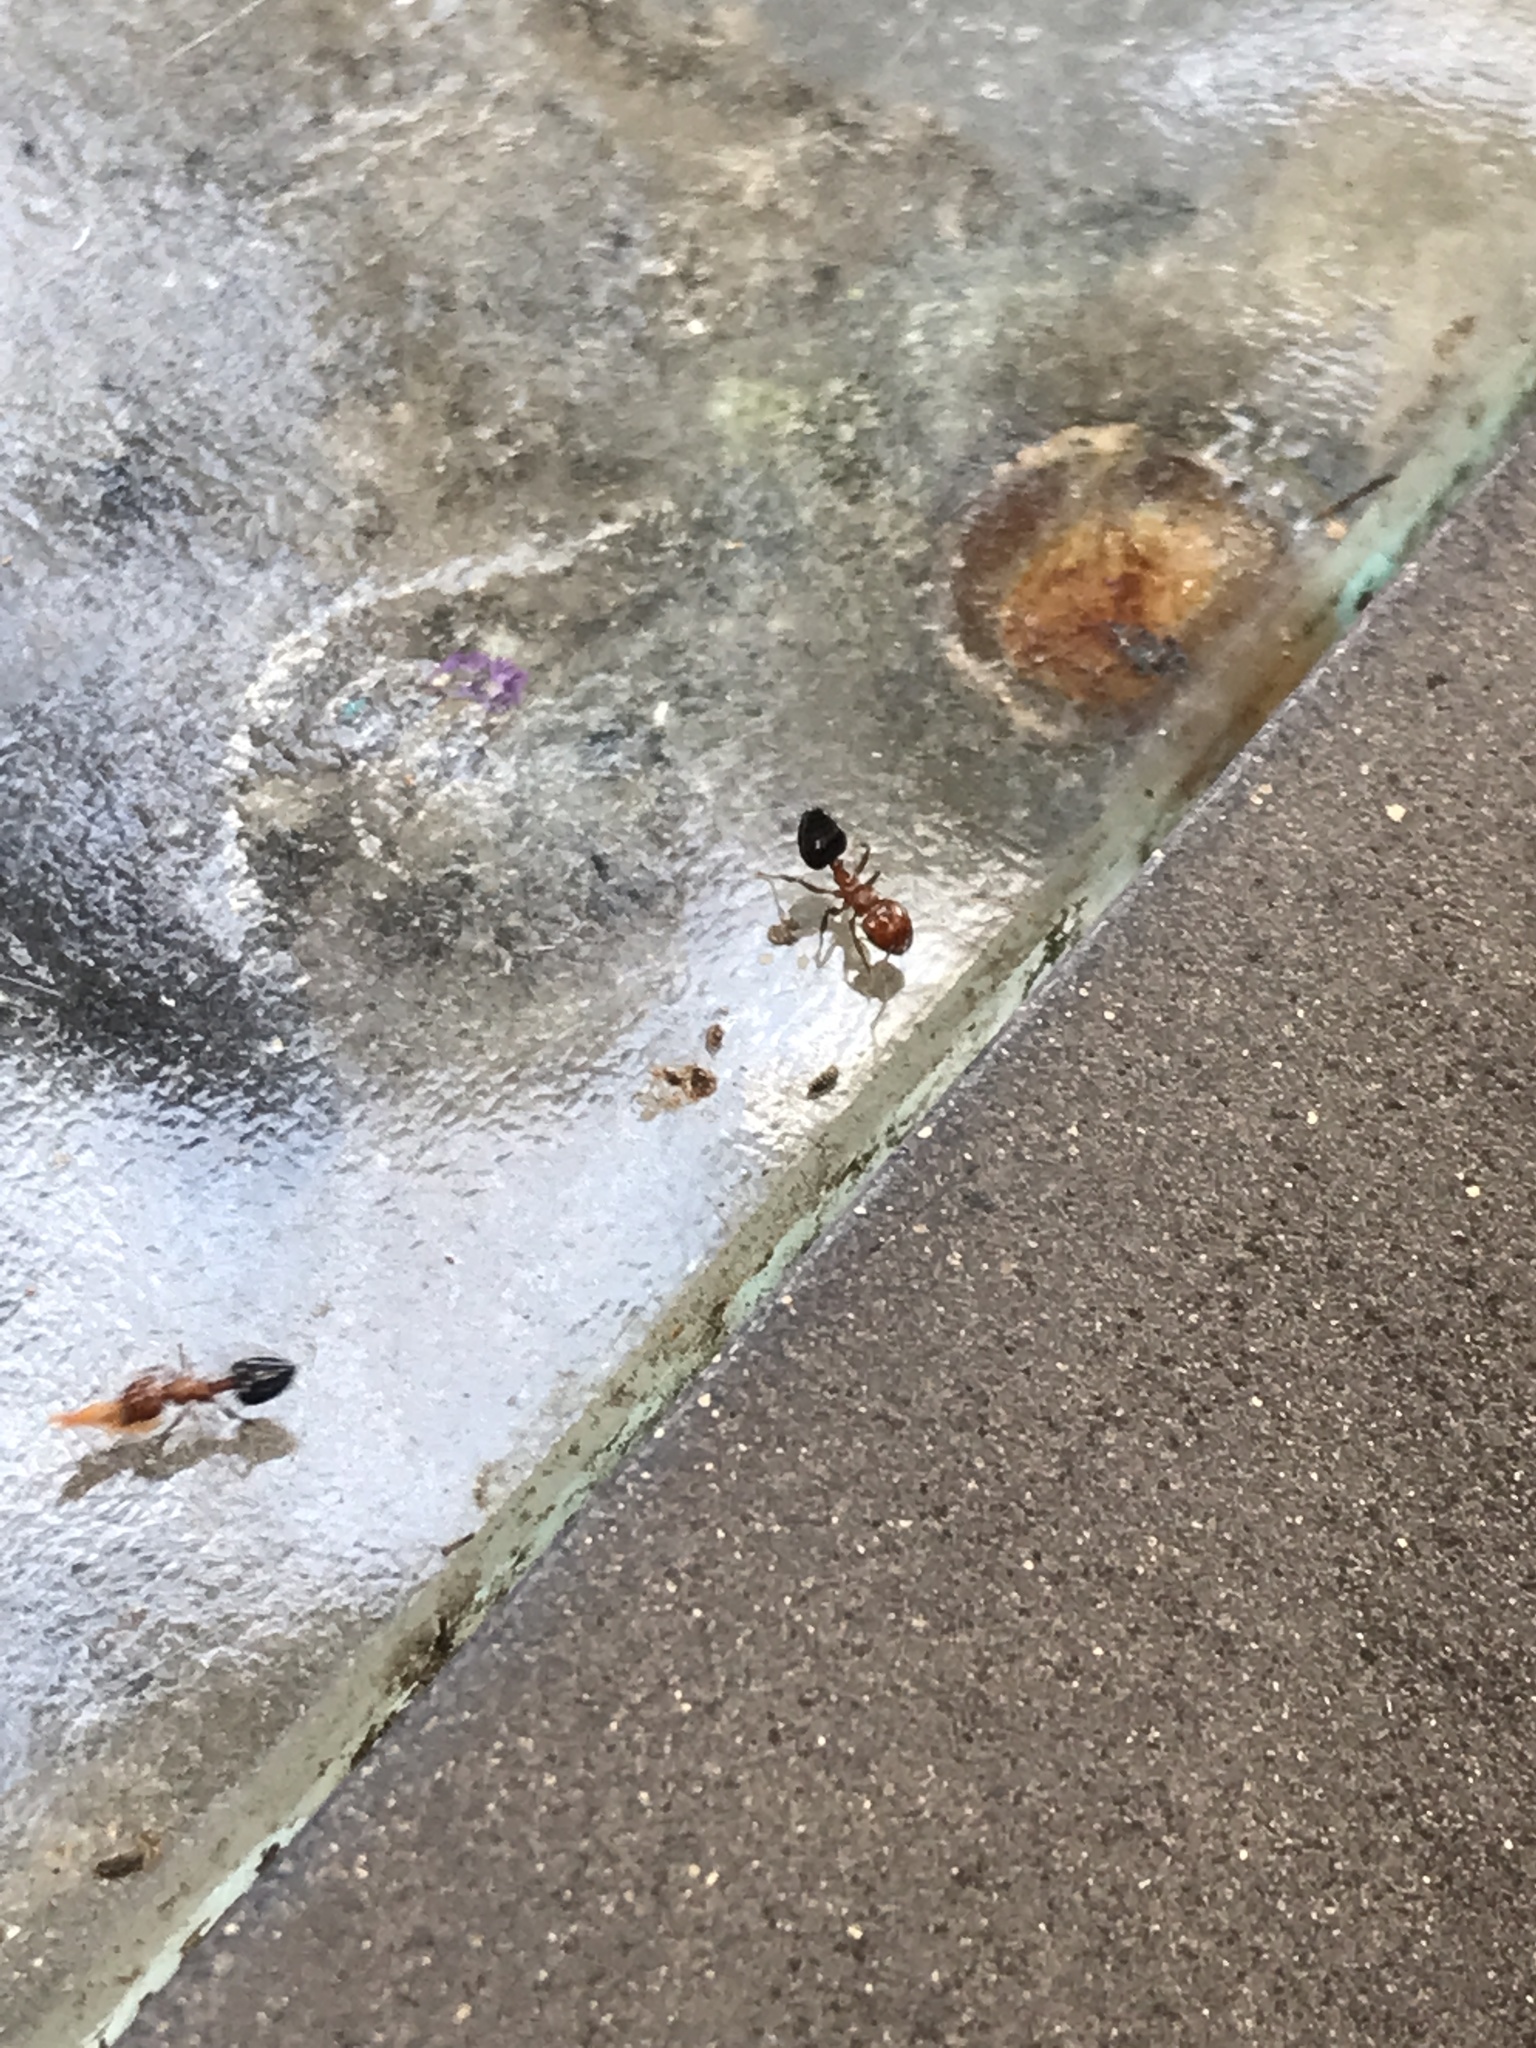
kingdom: Animalia
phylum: Arthropoda
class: Insecta
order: Hymenoptera
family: Formicidae
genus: Crematogaster
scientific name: Crematogaster laeviuscula
